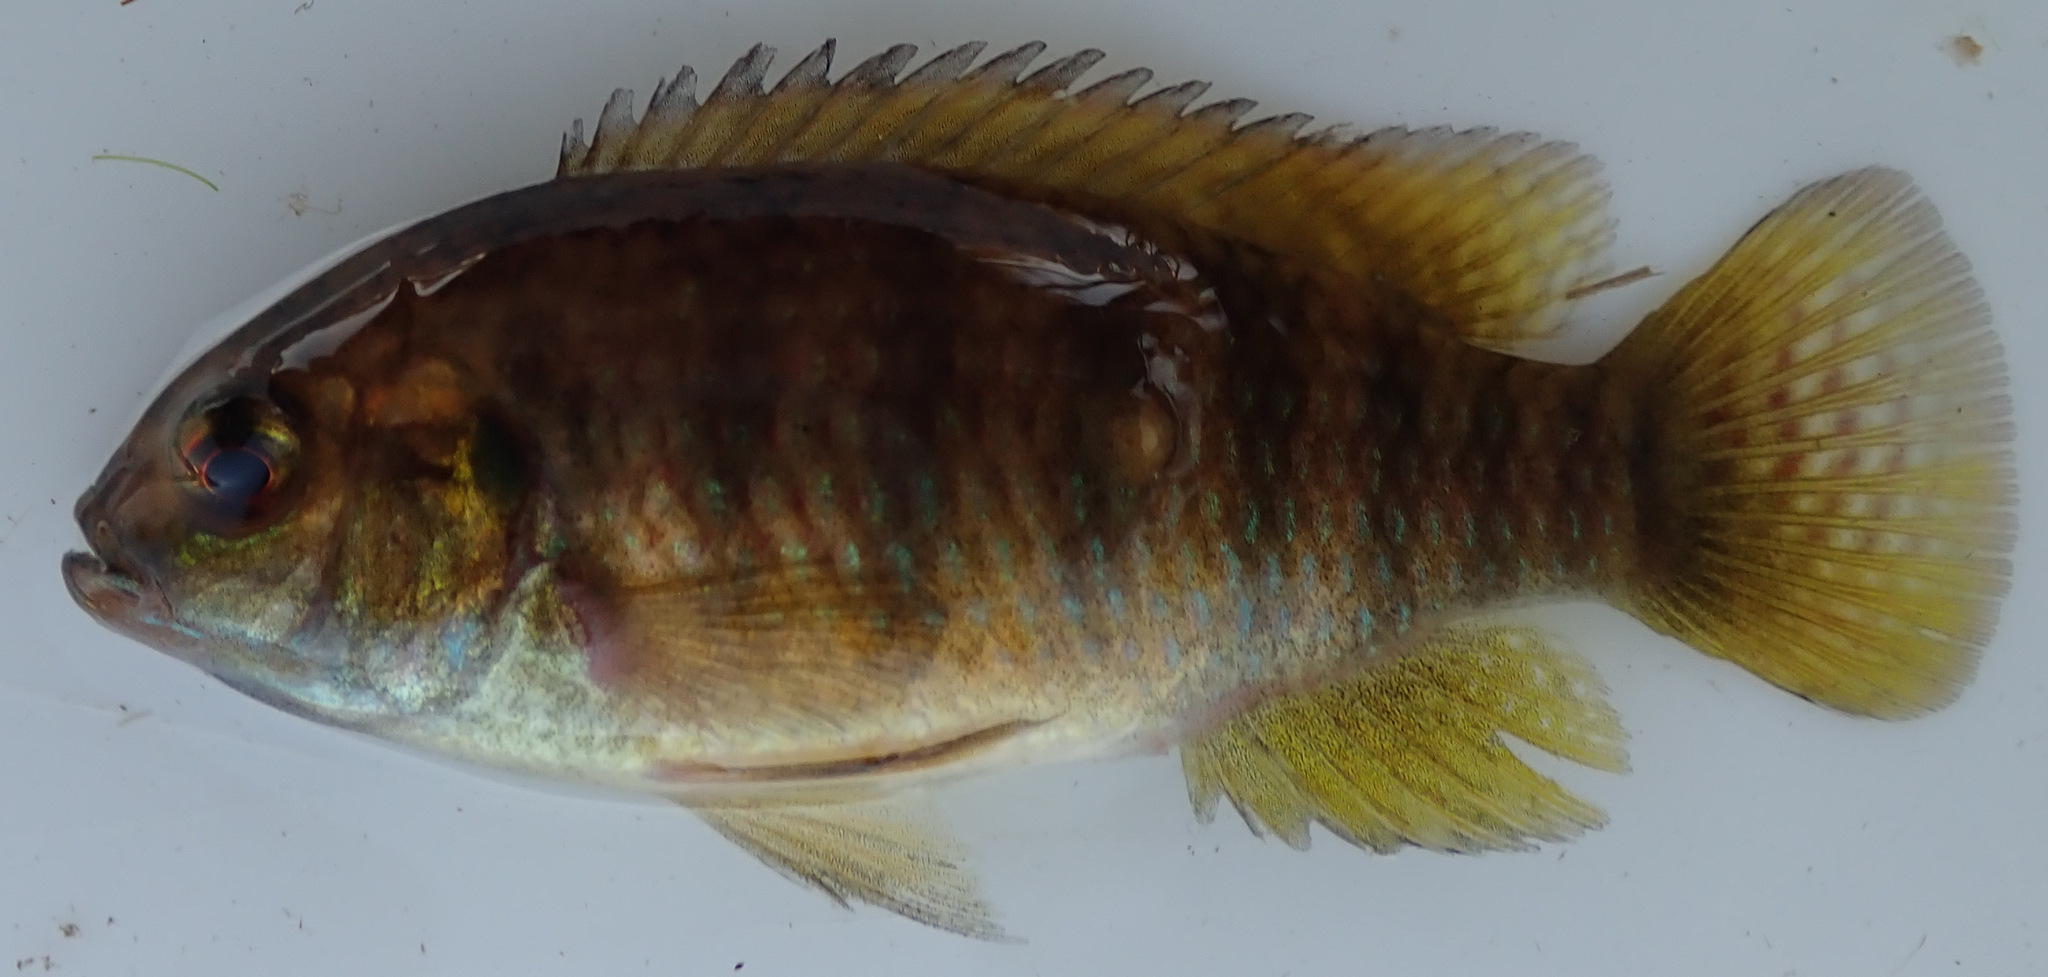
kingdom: Animalia
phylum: Chordata
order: Perciformes
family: Cichlidae
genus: Tilapia
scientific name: Tilapia ruweti
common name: Okavango tilapia
